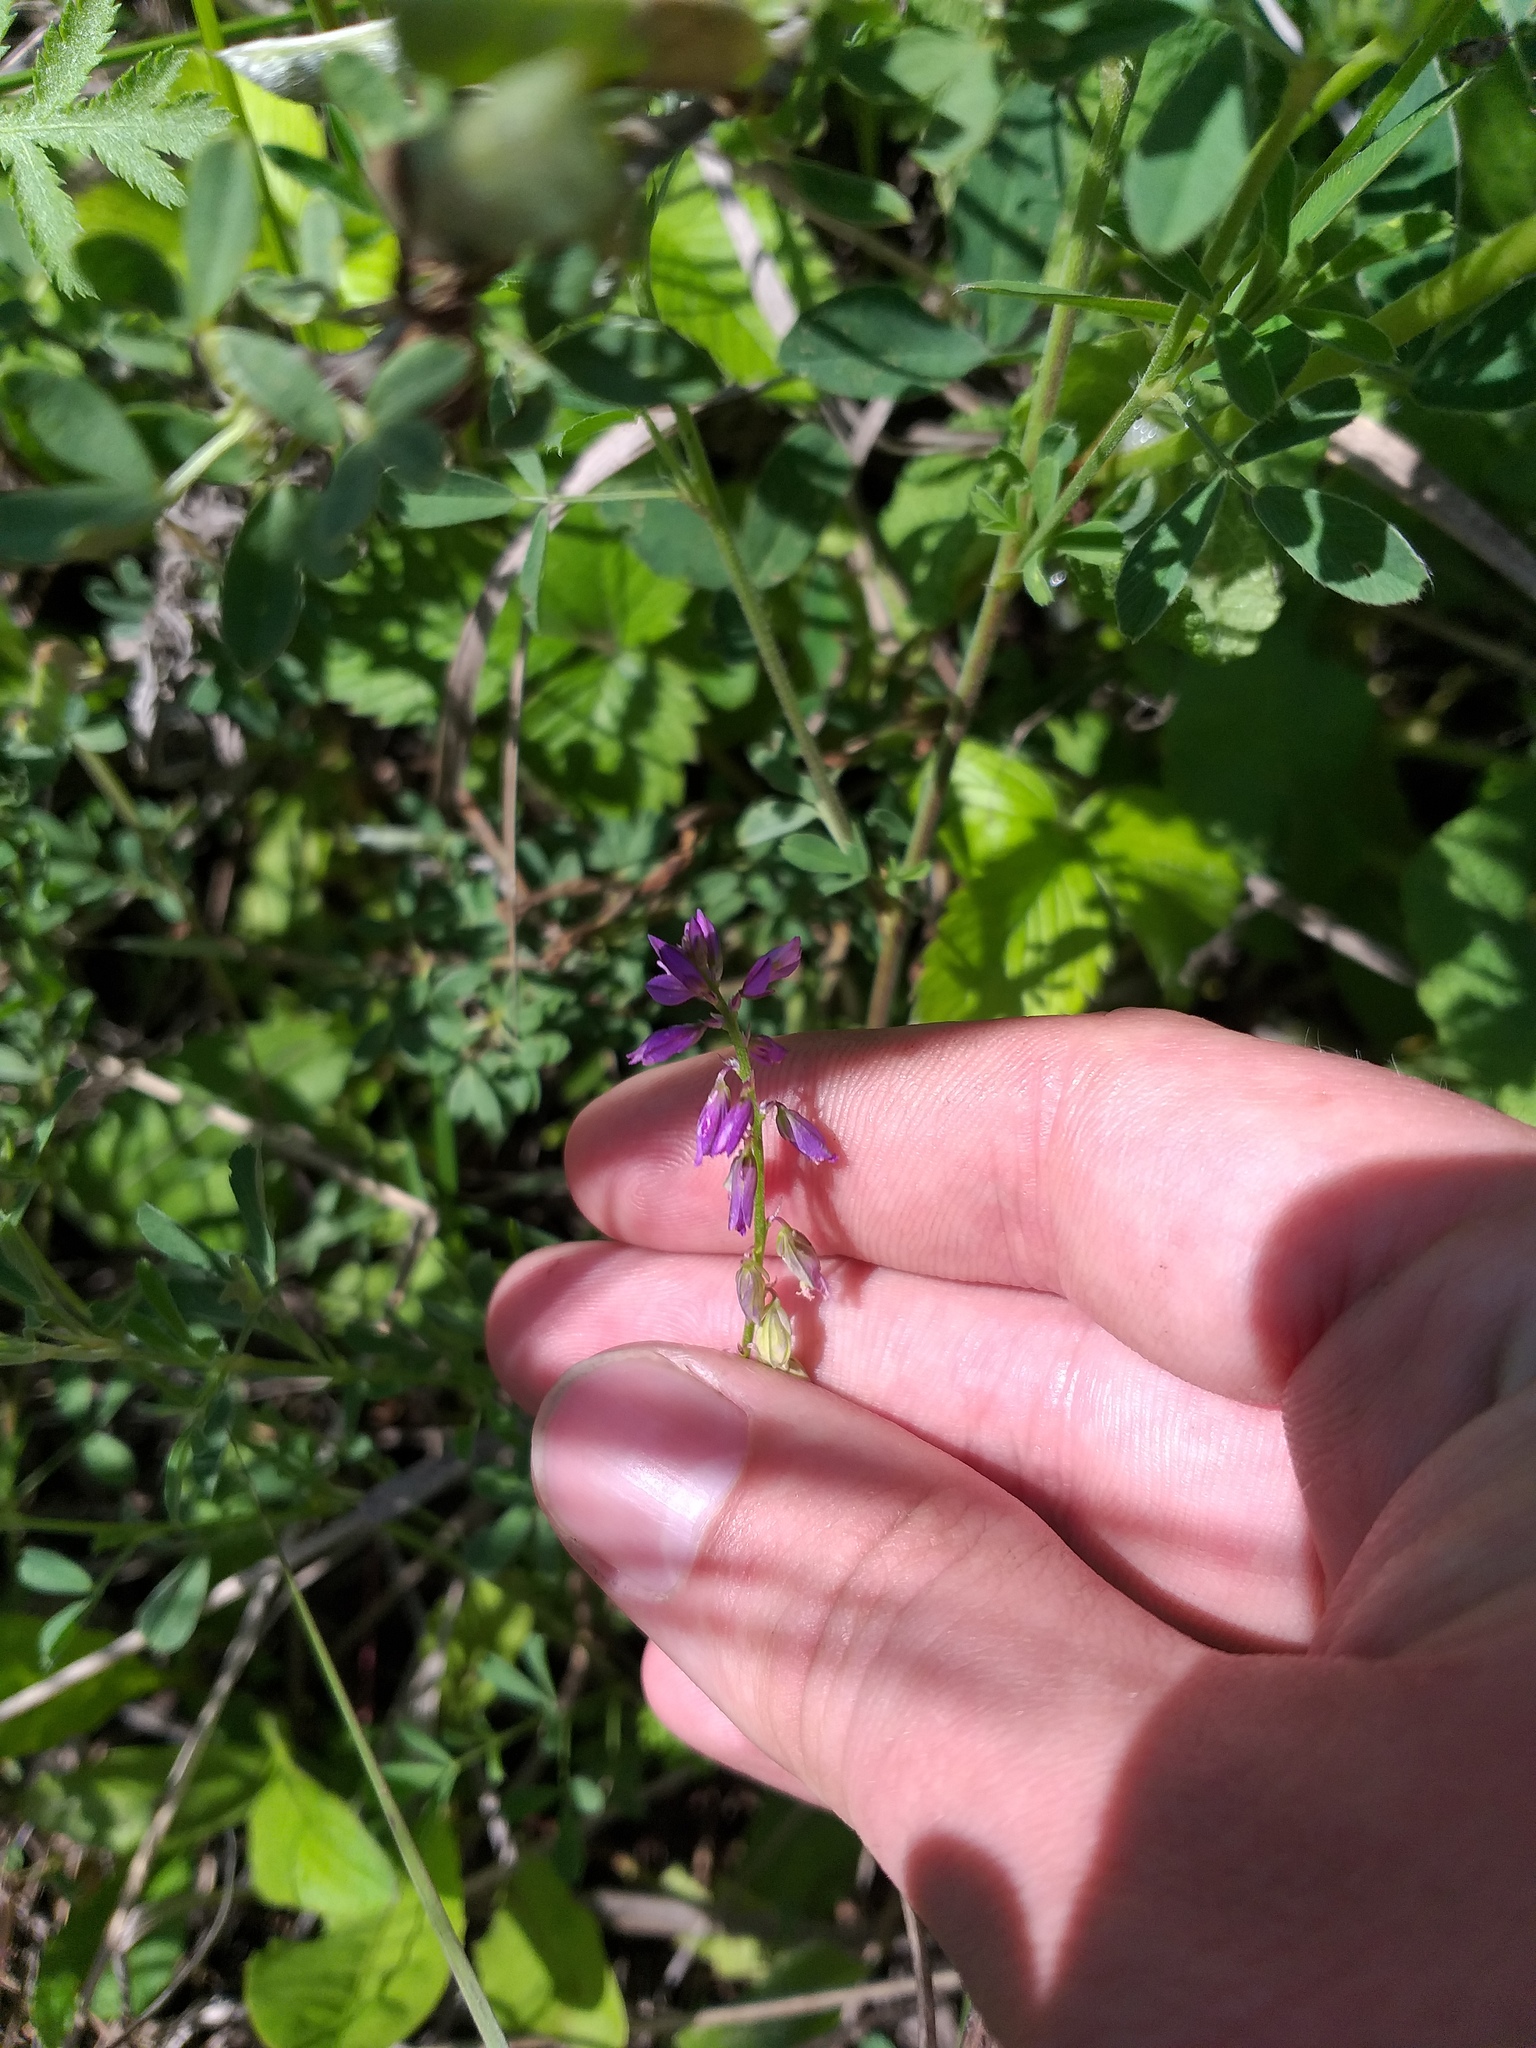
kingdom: Plantae
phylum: Tracheophyta
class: Magnoliopsida
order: Fabales
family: Polygalaceae
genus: Polygala
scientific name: Polygala comosa
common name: Tufted milkwort
